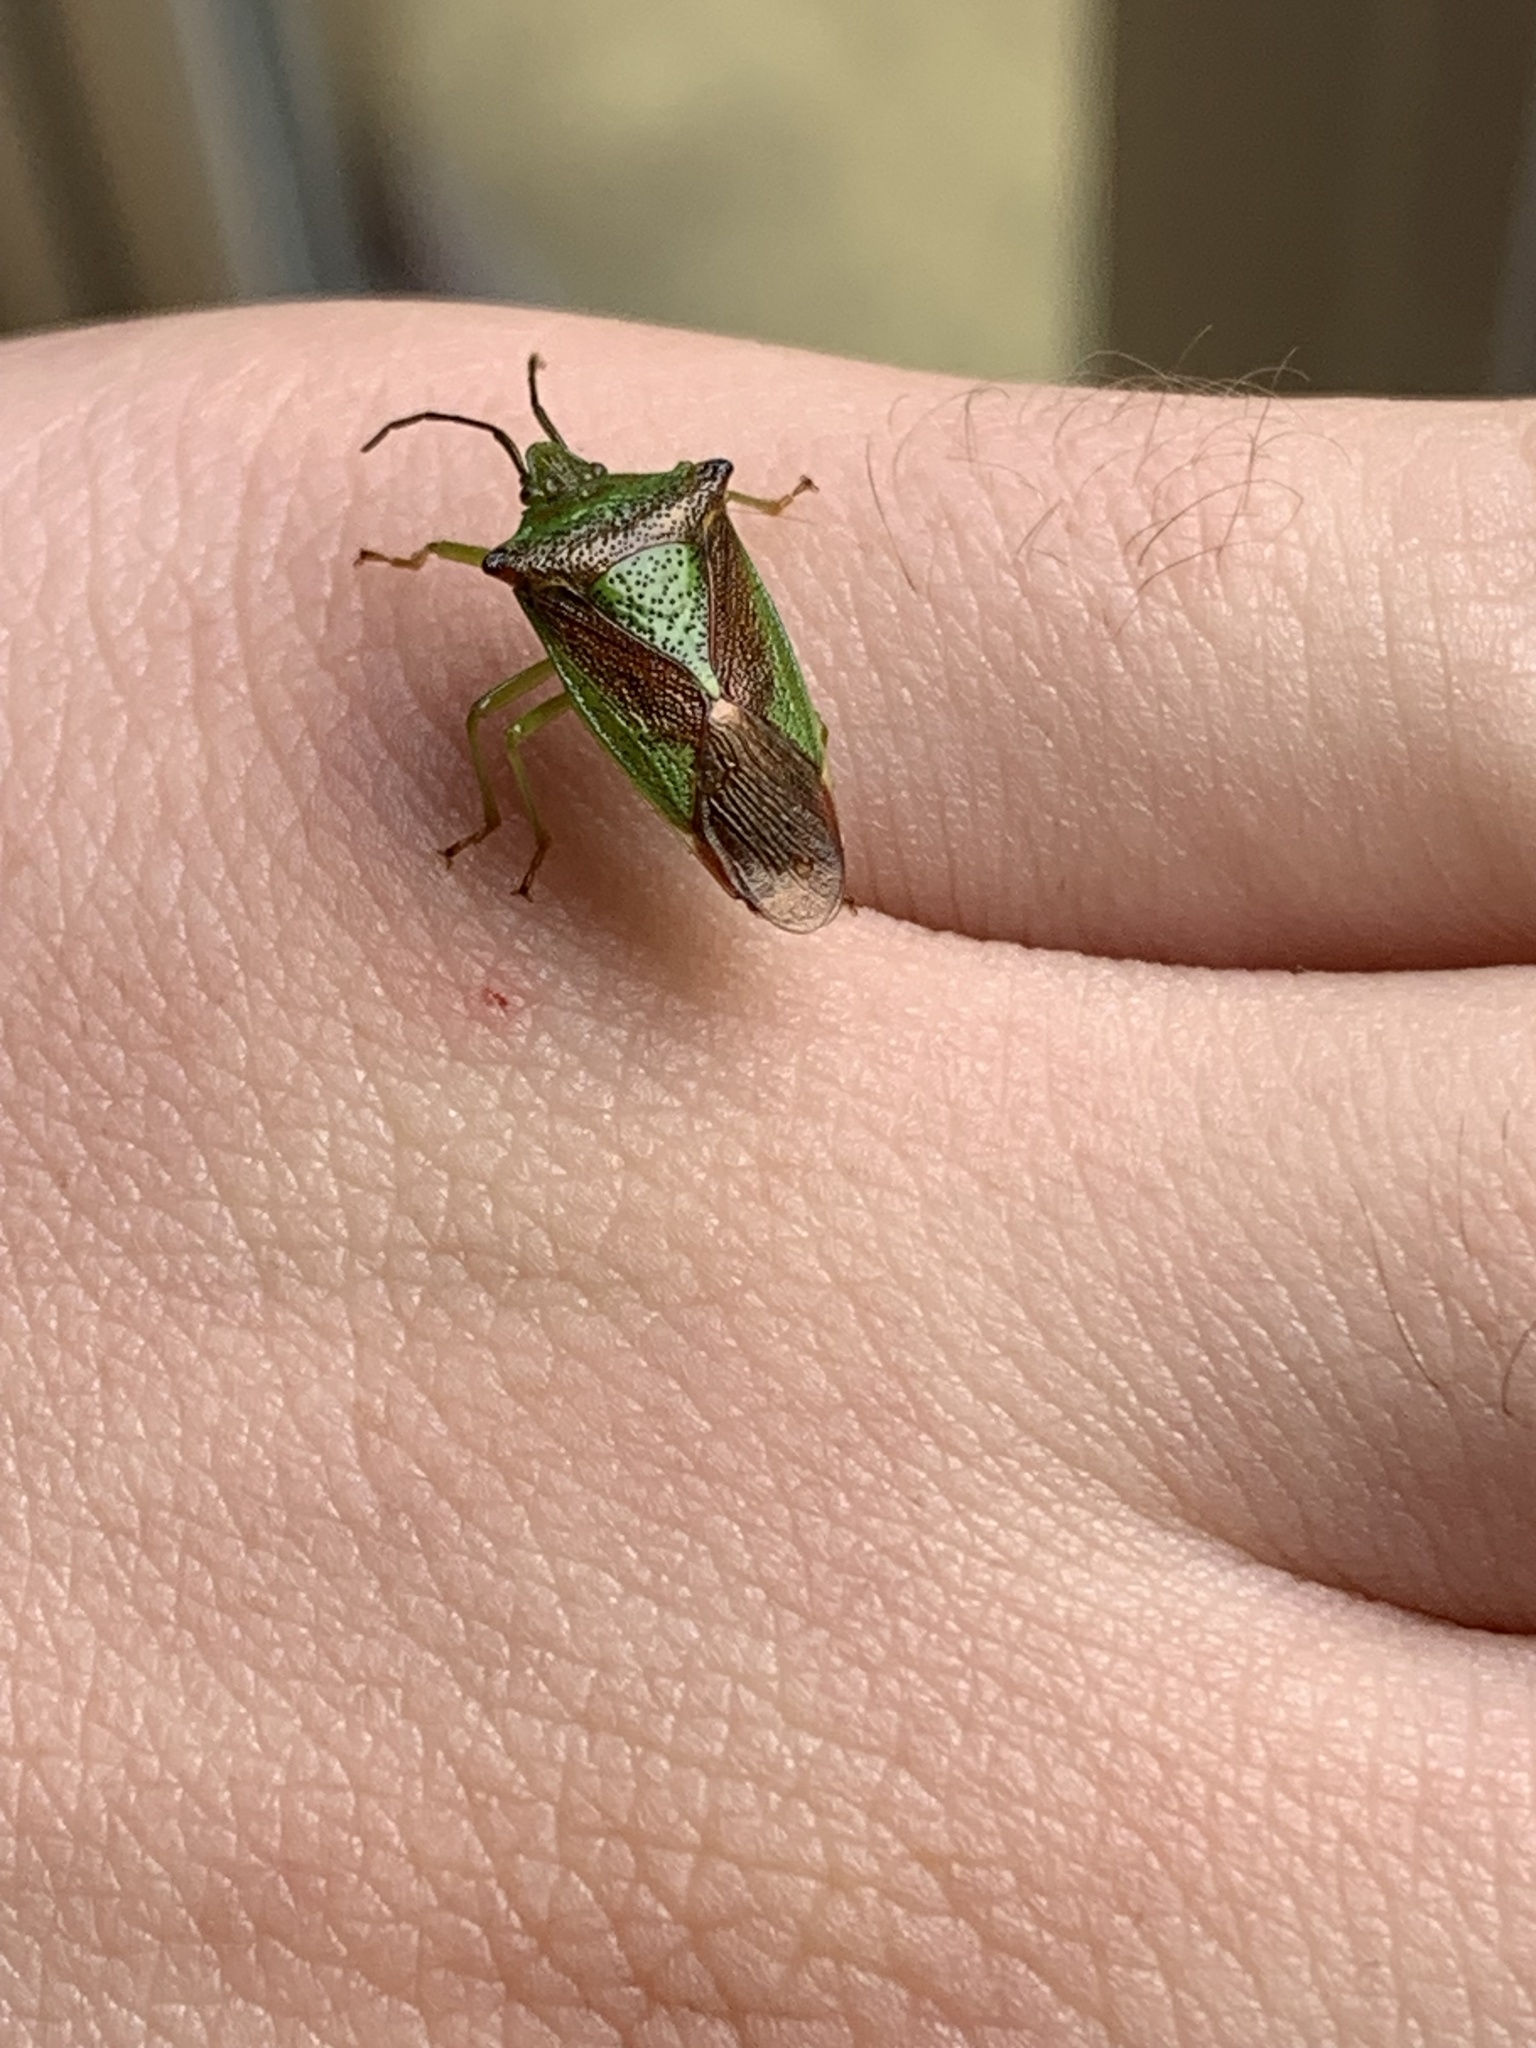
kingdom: Animalia
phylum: Arthropoda
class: Insecta
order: Hemiptera
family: Acanthosomatidae
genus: Acanthosoma
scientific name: Acanthosoma haemorrhoidale
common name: Hawthorn shieldbug
